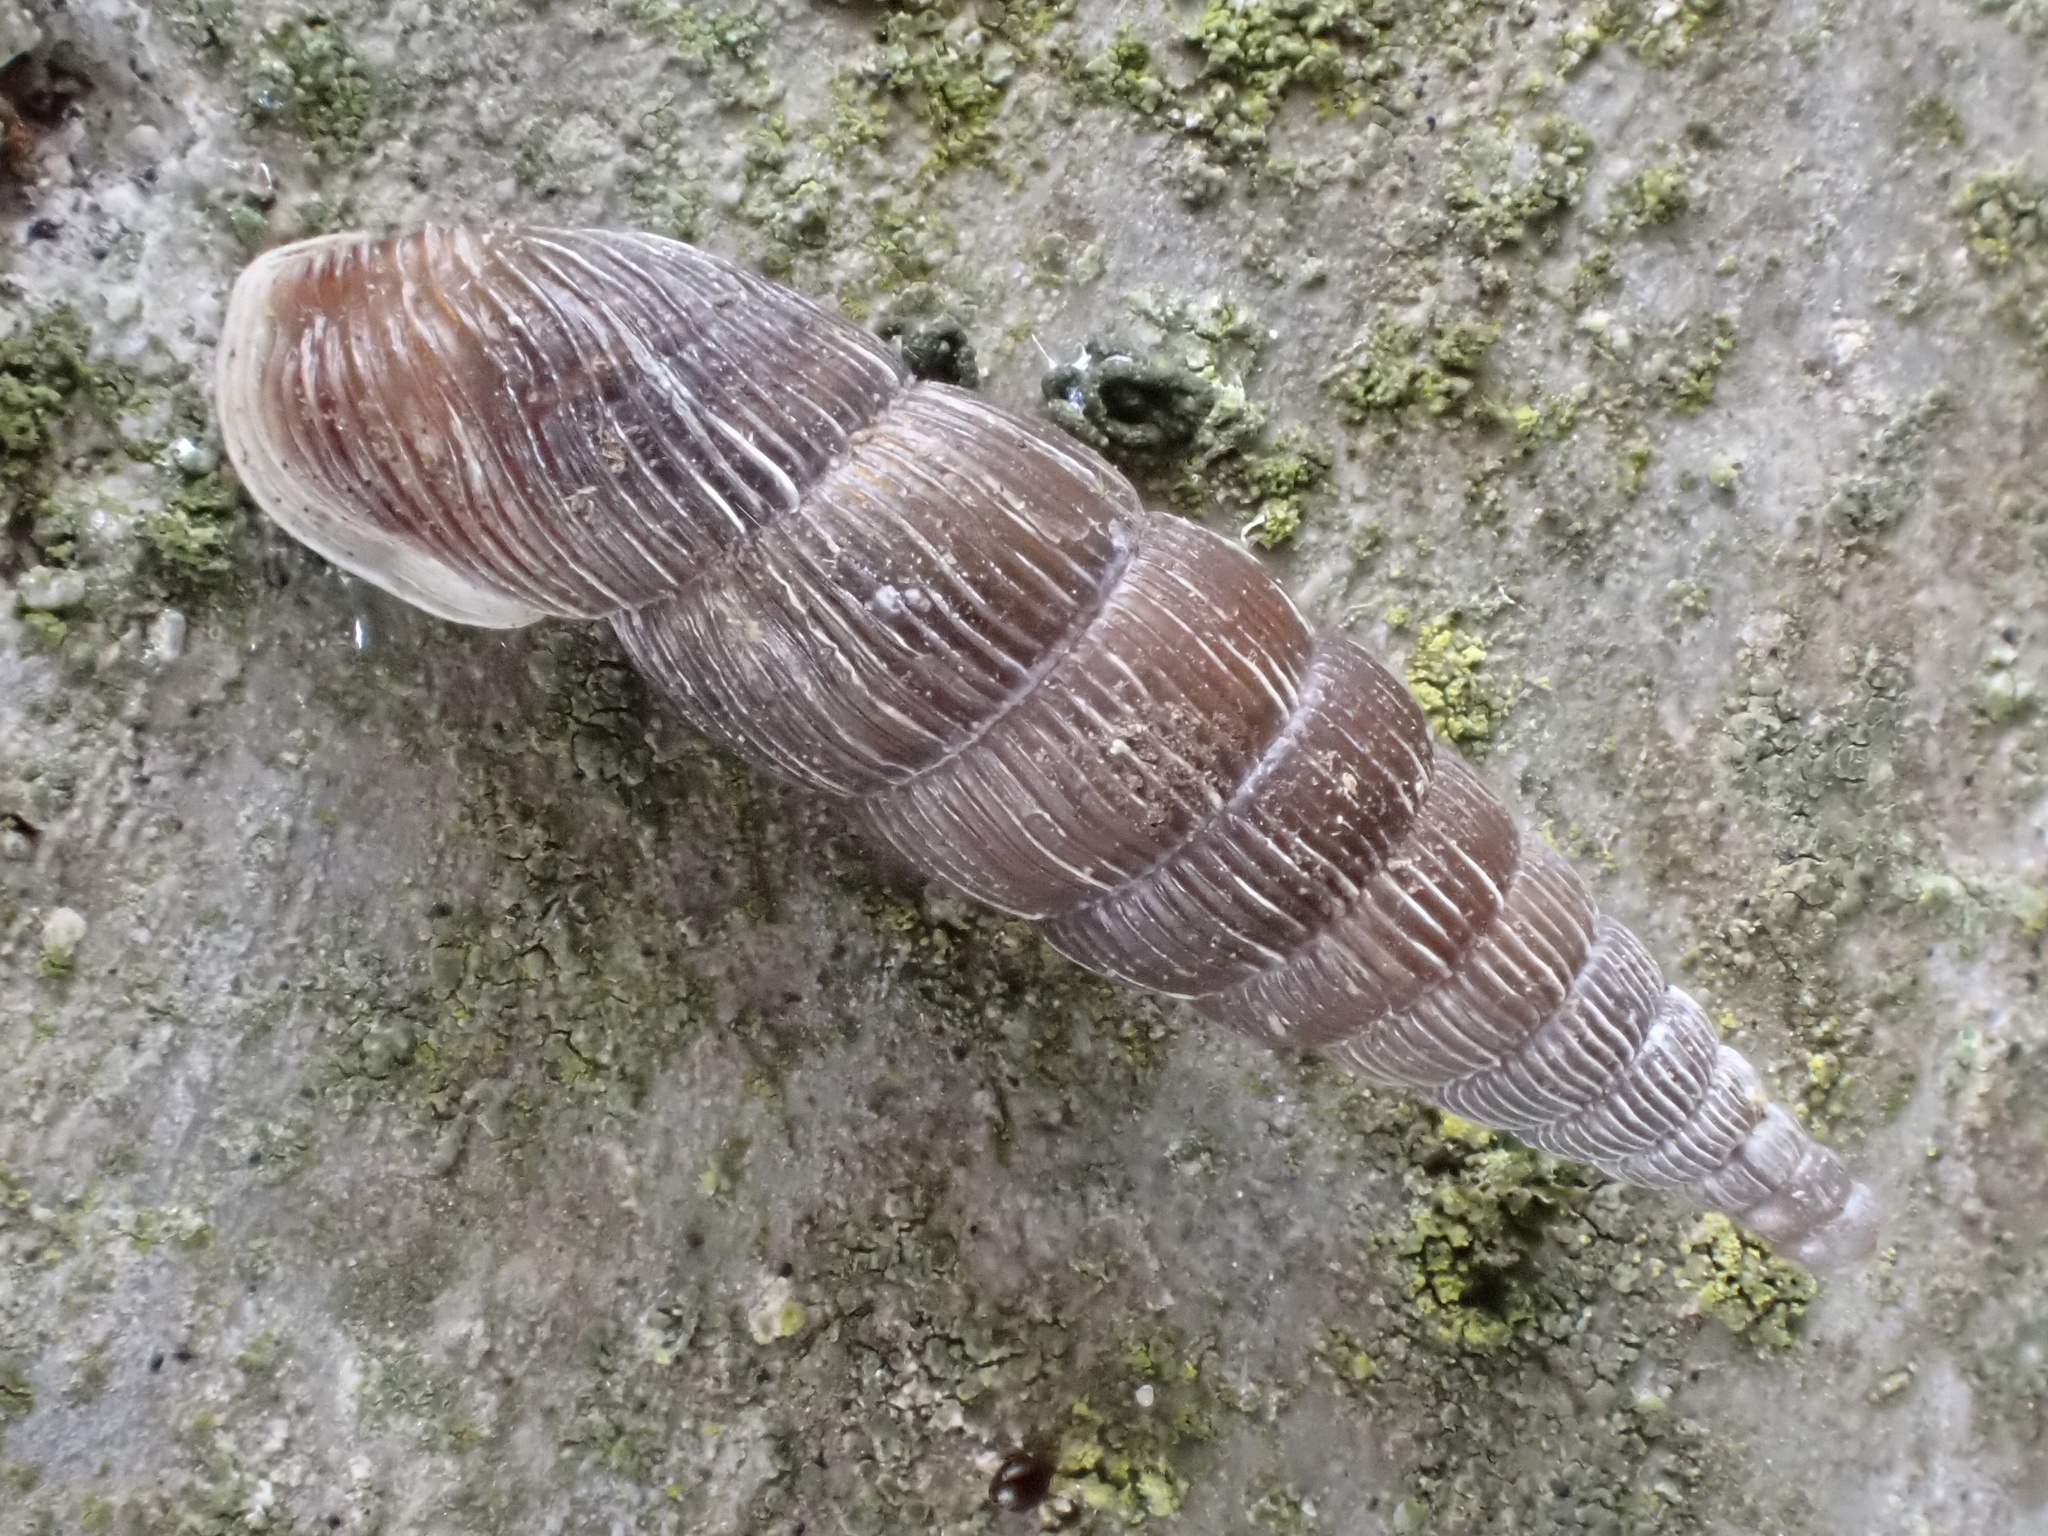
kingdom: Animalia
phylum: Mollusca
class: Gastropoda
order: Stylommatophora
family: Clausiliidae
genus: Alinda
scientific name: Alinda biplicata
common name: Thames door snail
